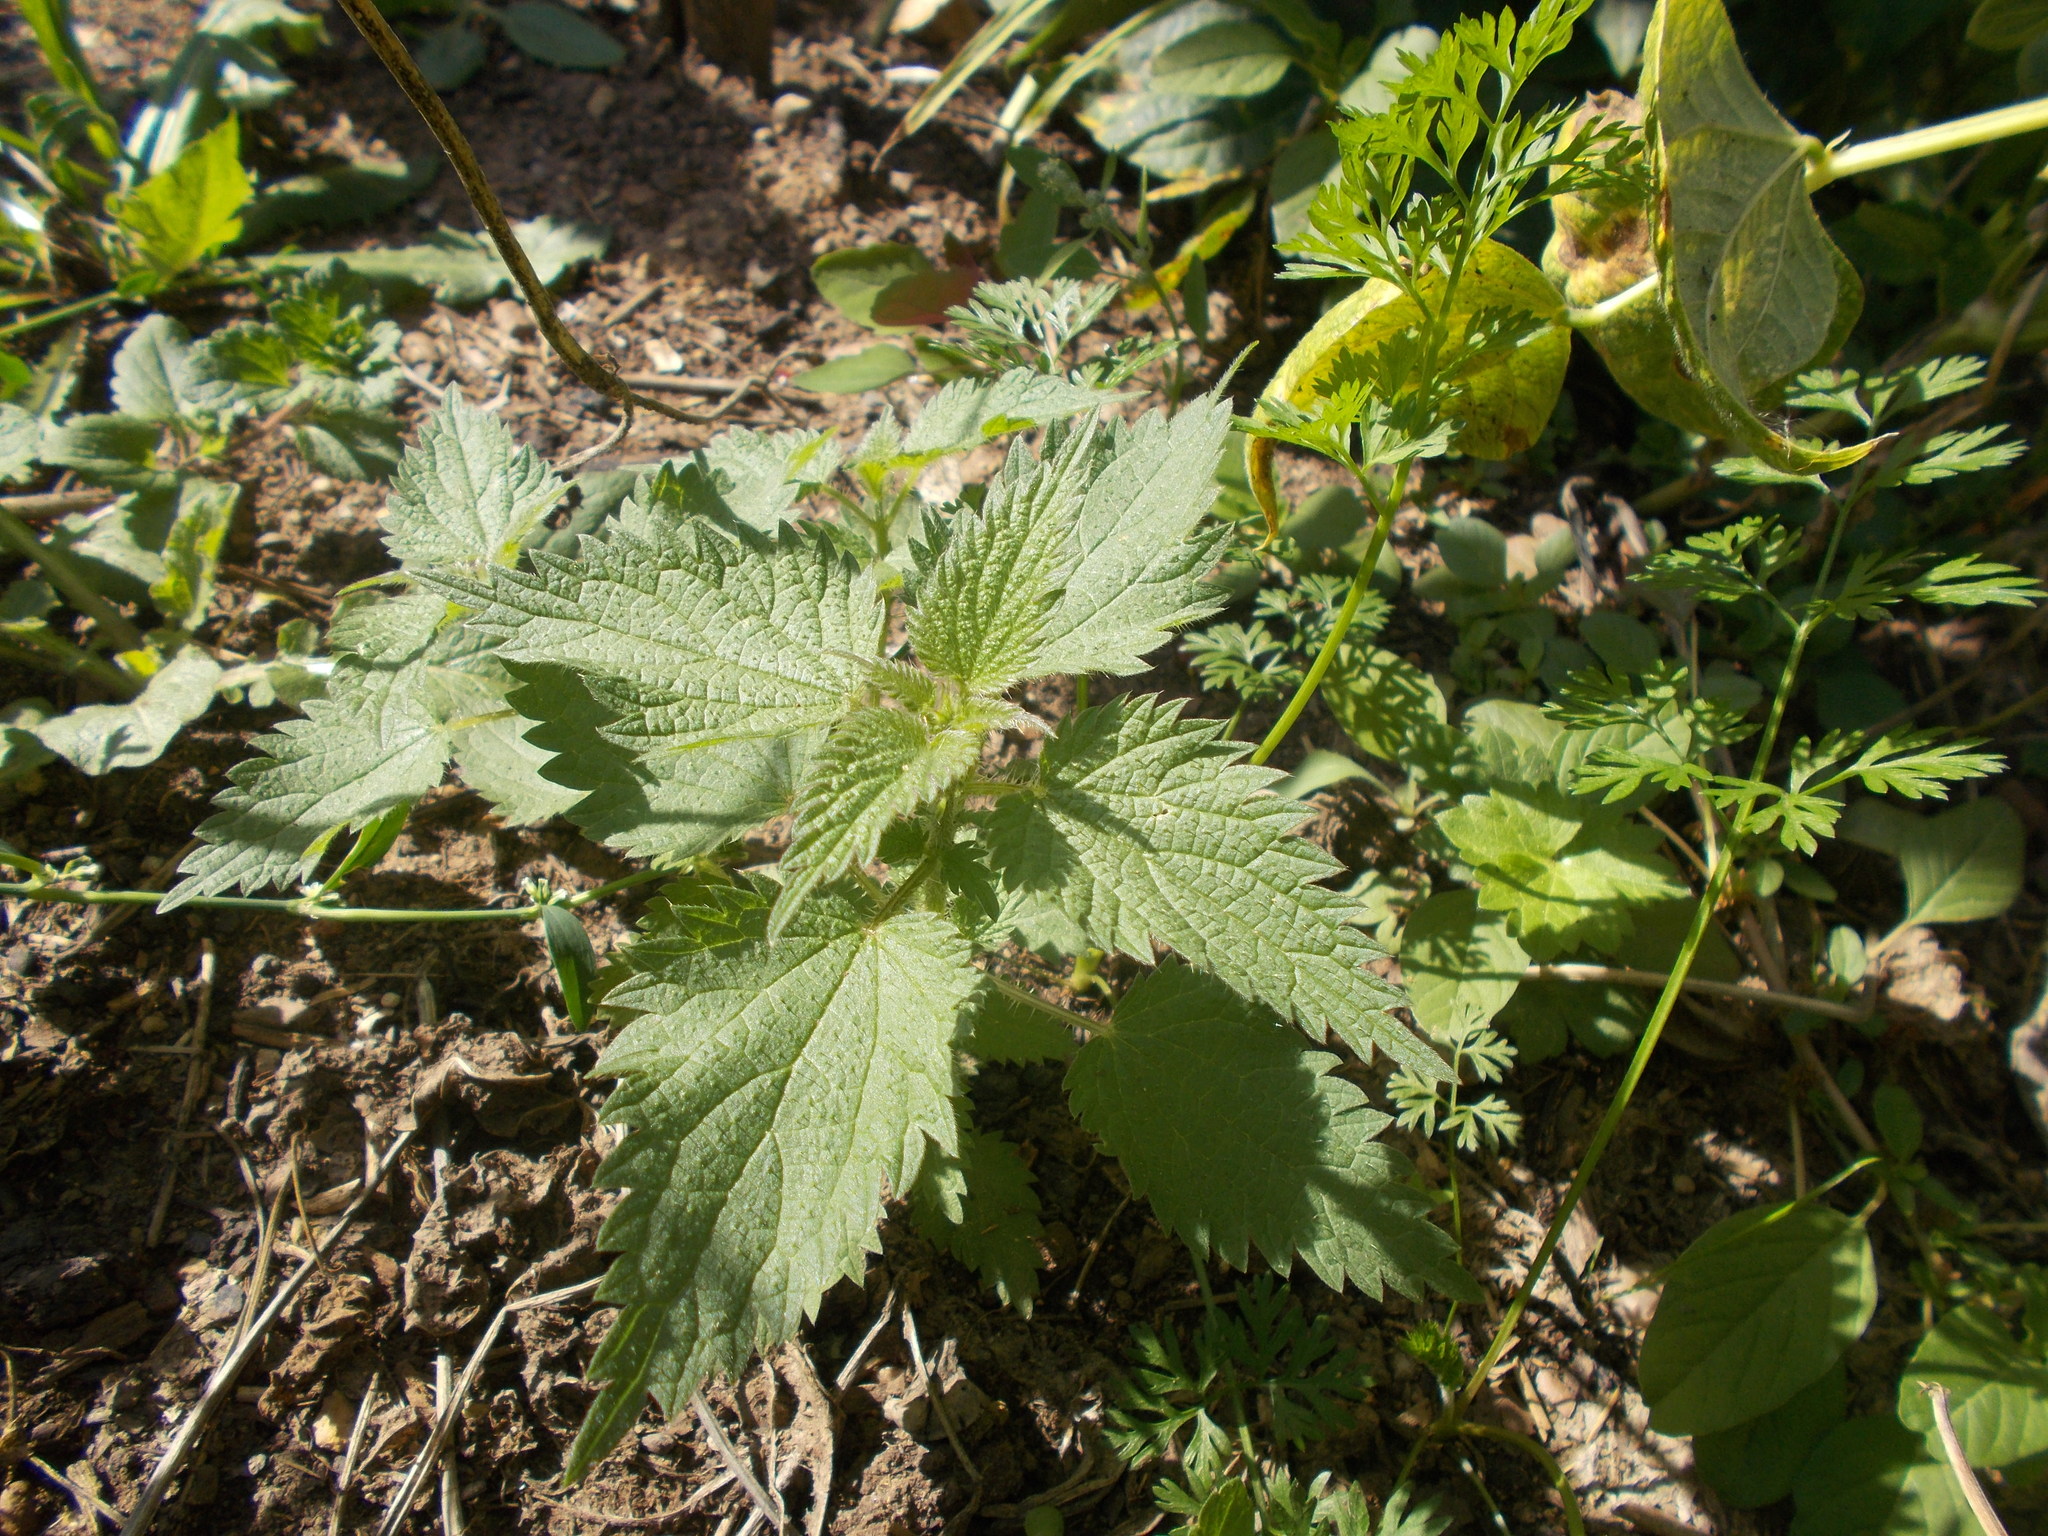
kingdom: Plantae
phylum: Tracheophyta
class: Magnoliopsida
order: Rosales
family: Urticaceae
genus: Urtica
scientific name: Urtica dioica
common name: Common nettle
